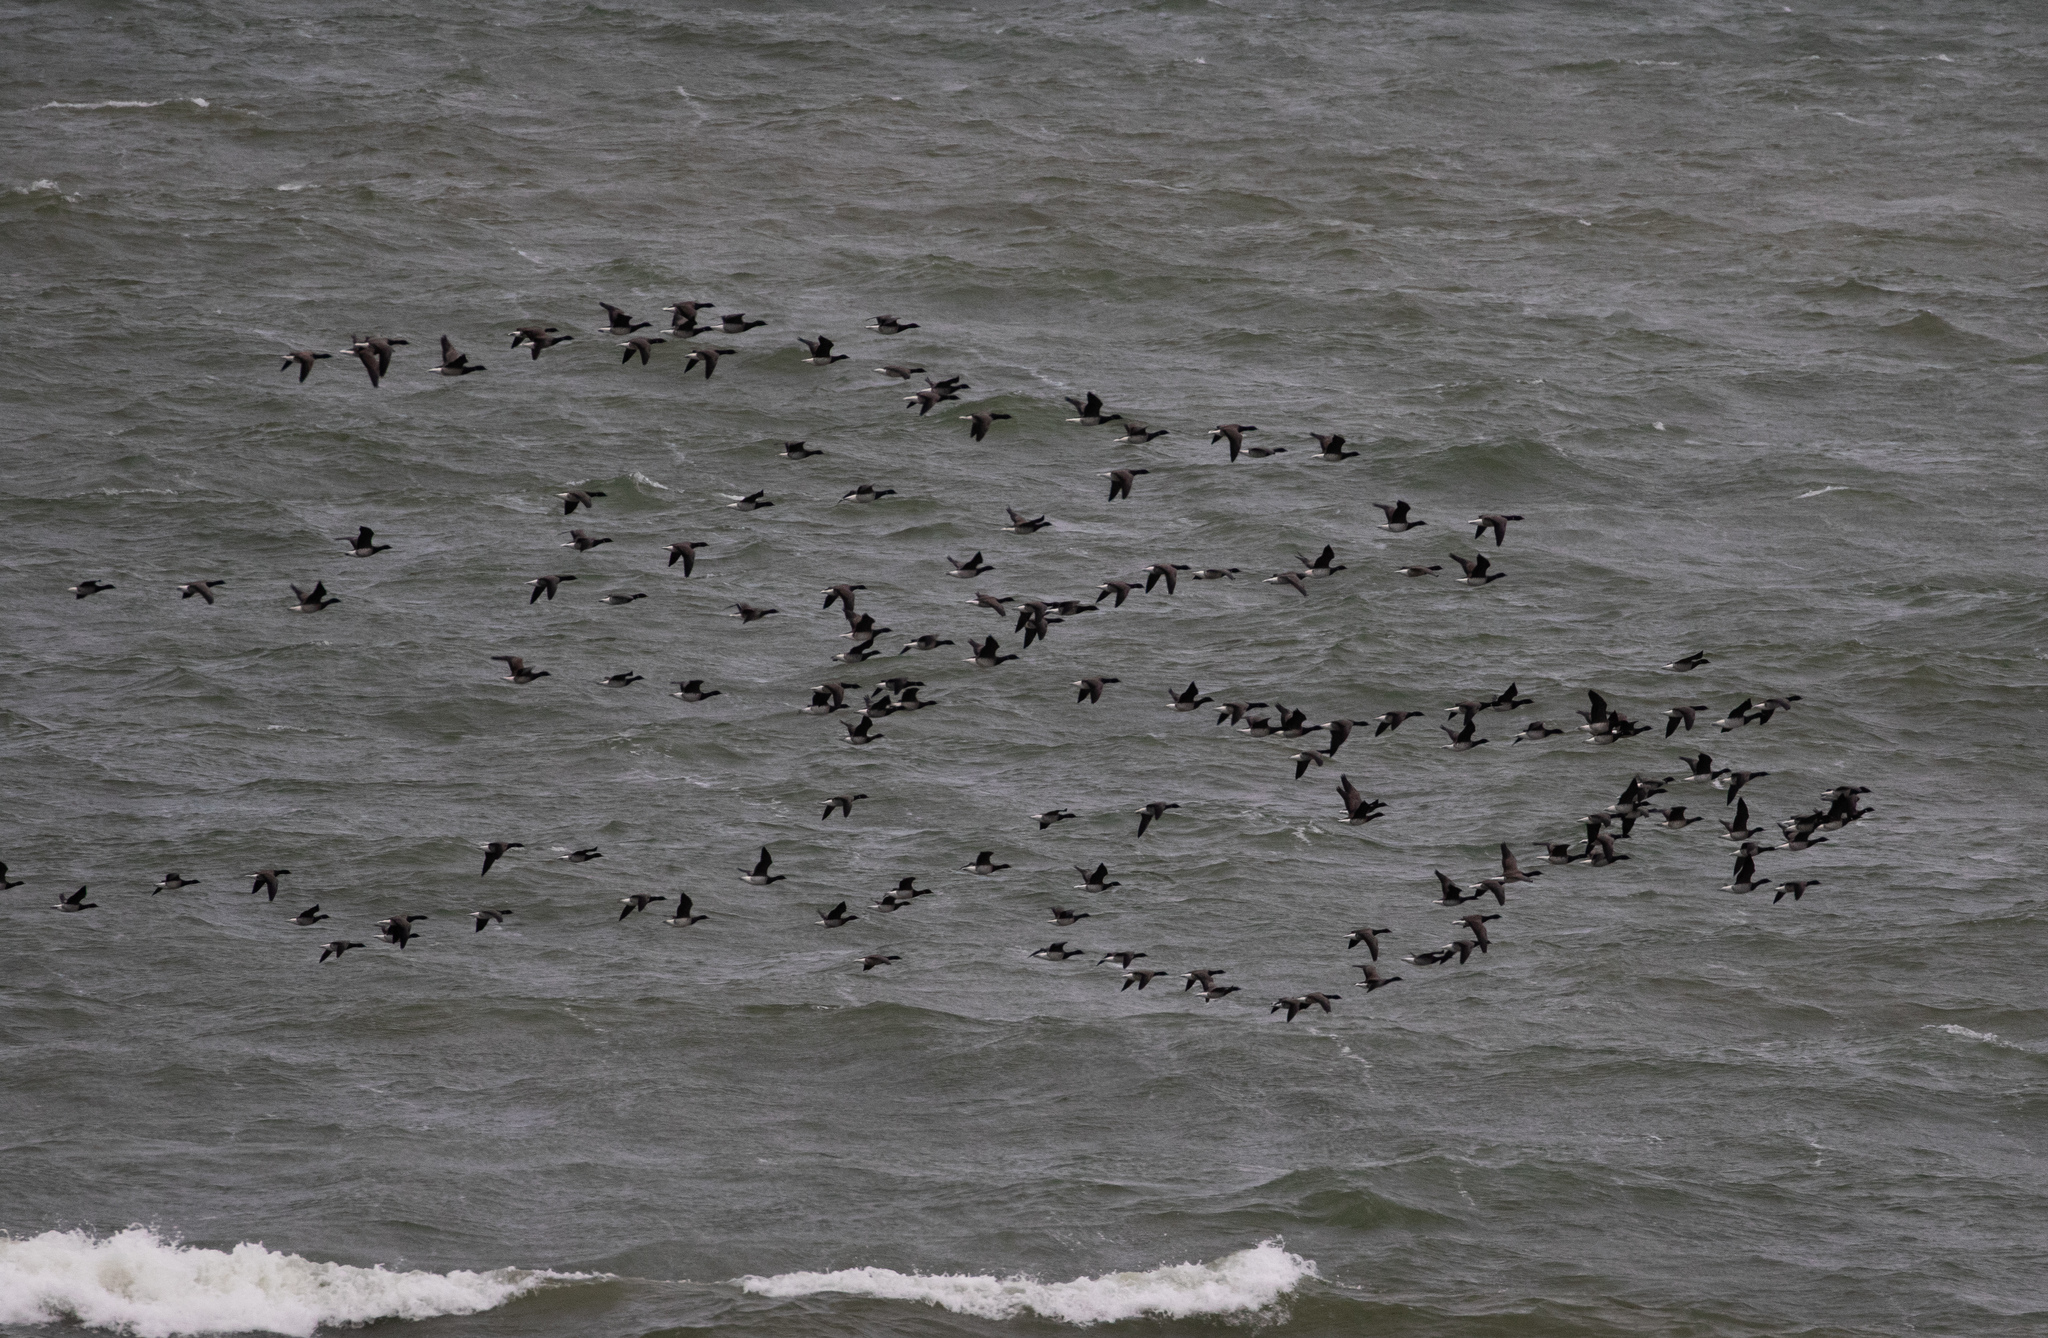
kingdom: Animalia
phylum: Chordata
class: Aves
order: Anseriformes
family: Anatidae
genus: Branta
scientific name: Branta bernicla
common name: Brant goose
